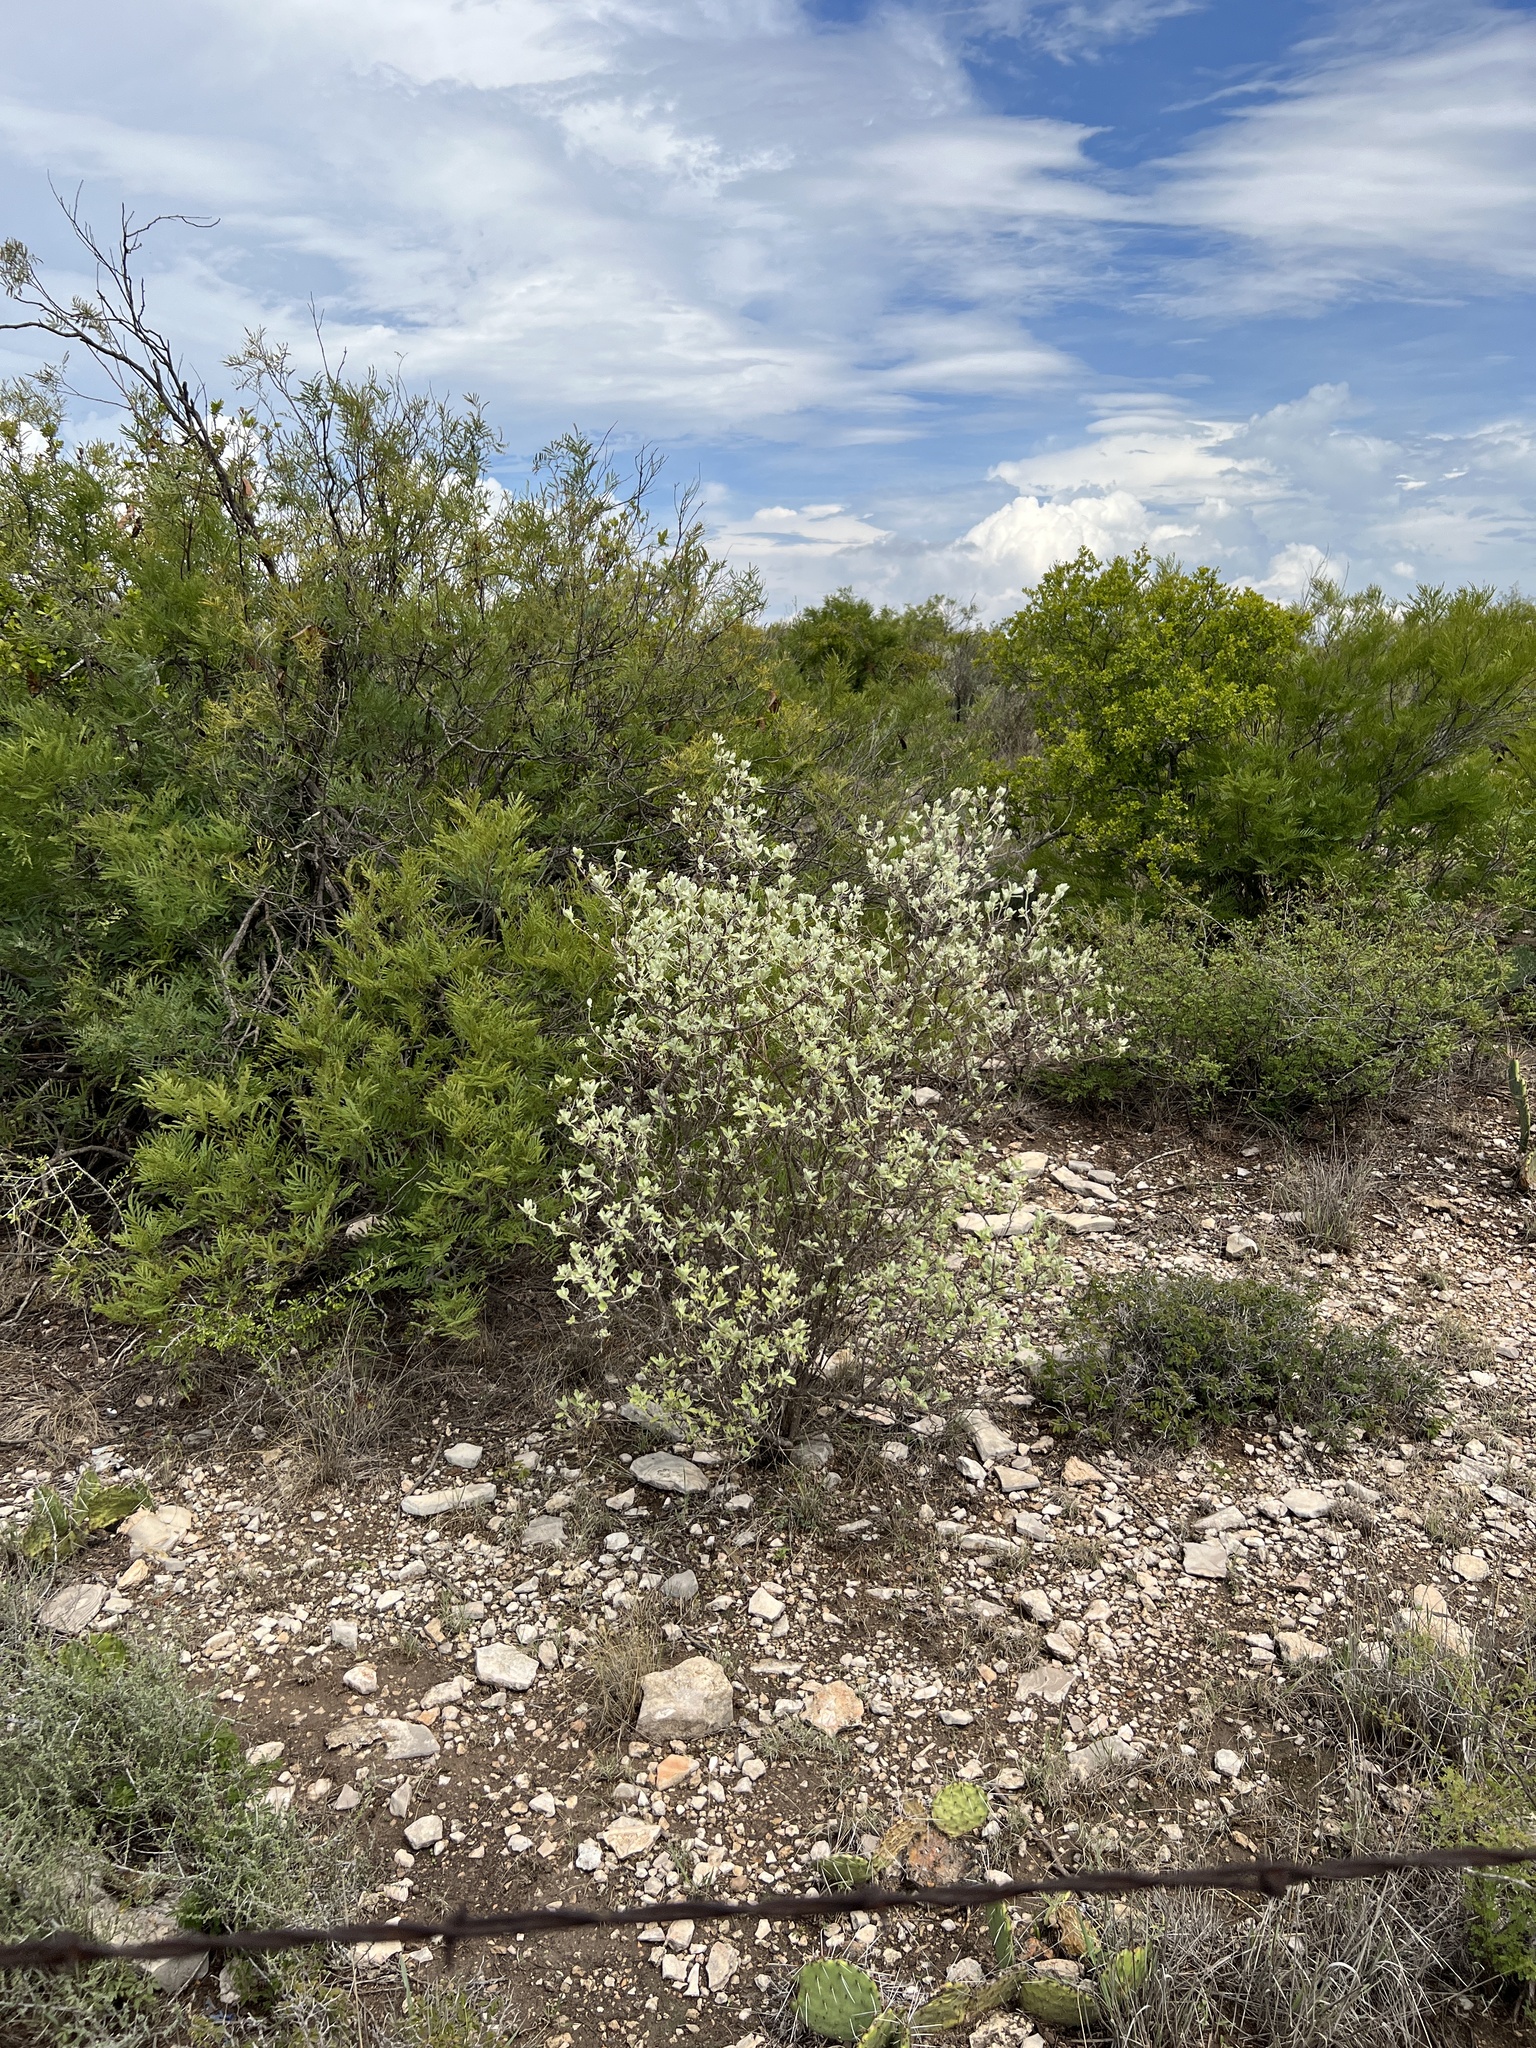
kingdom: Plantae
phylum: Tracheophyta
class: Magnoliopsida
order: Lamiales
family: Scrophulariaceae
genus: Leucophyllum
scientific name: Leucophyllum frutescens
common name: Texas silverleaf
